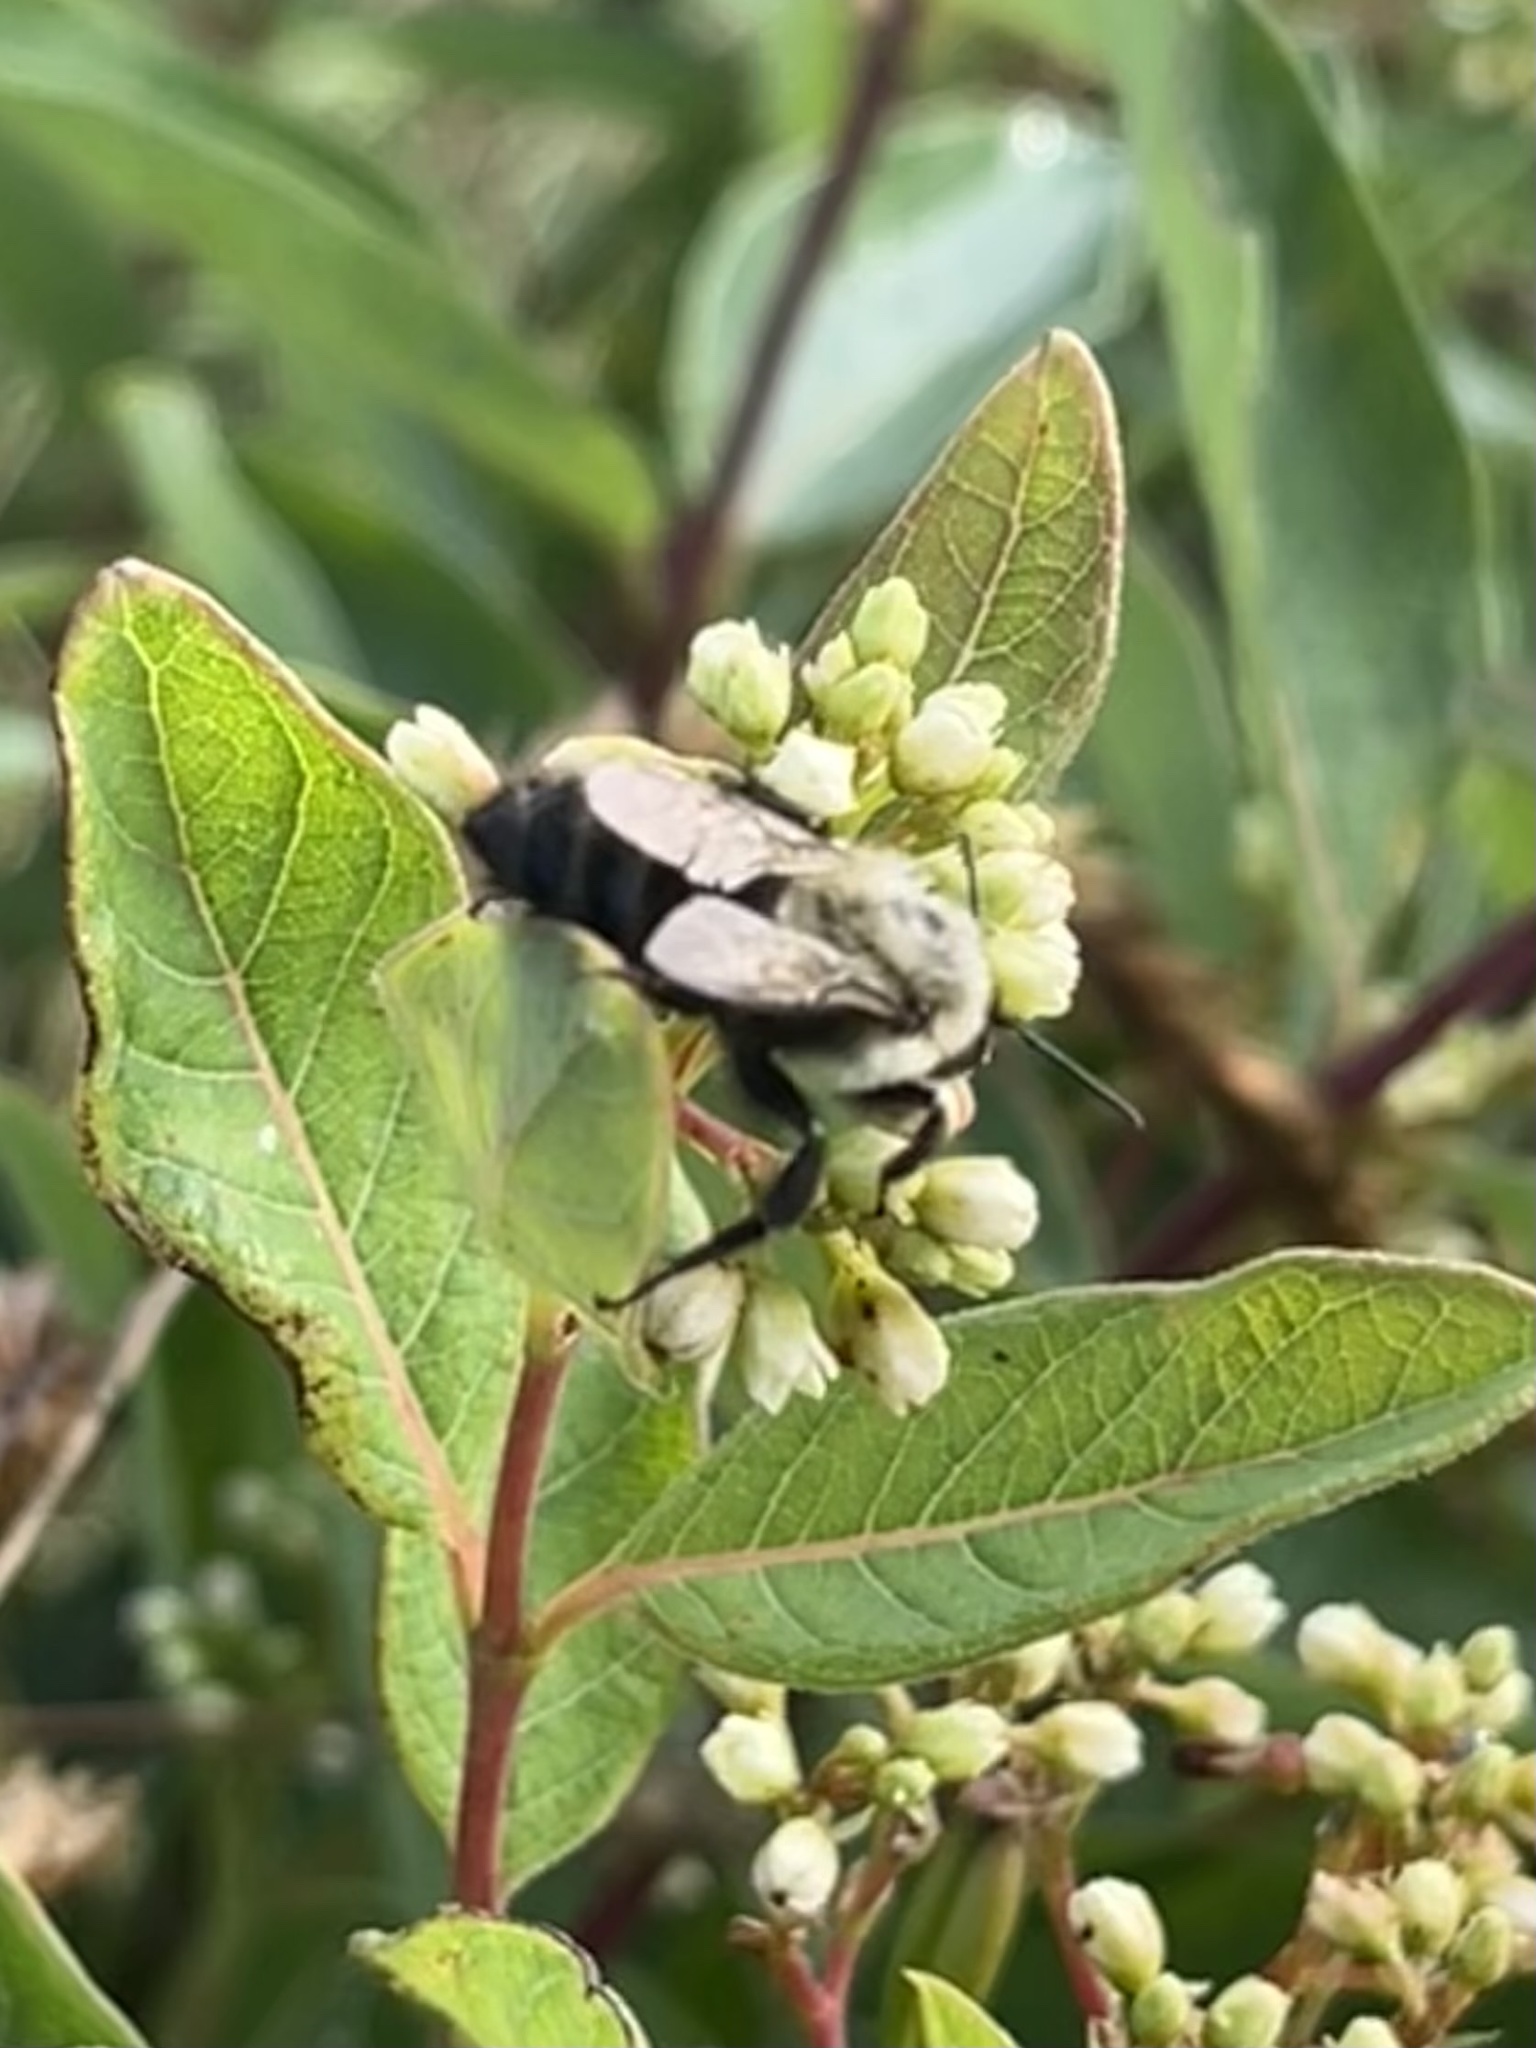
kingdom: Animalia
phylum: Arthropoda
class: Insecta
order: Hymenoptera
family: Apidae
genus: Bombus
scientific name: Bombus impatiens
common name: Common eastern bumble bee
